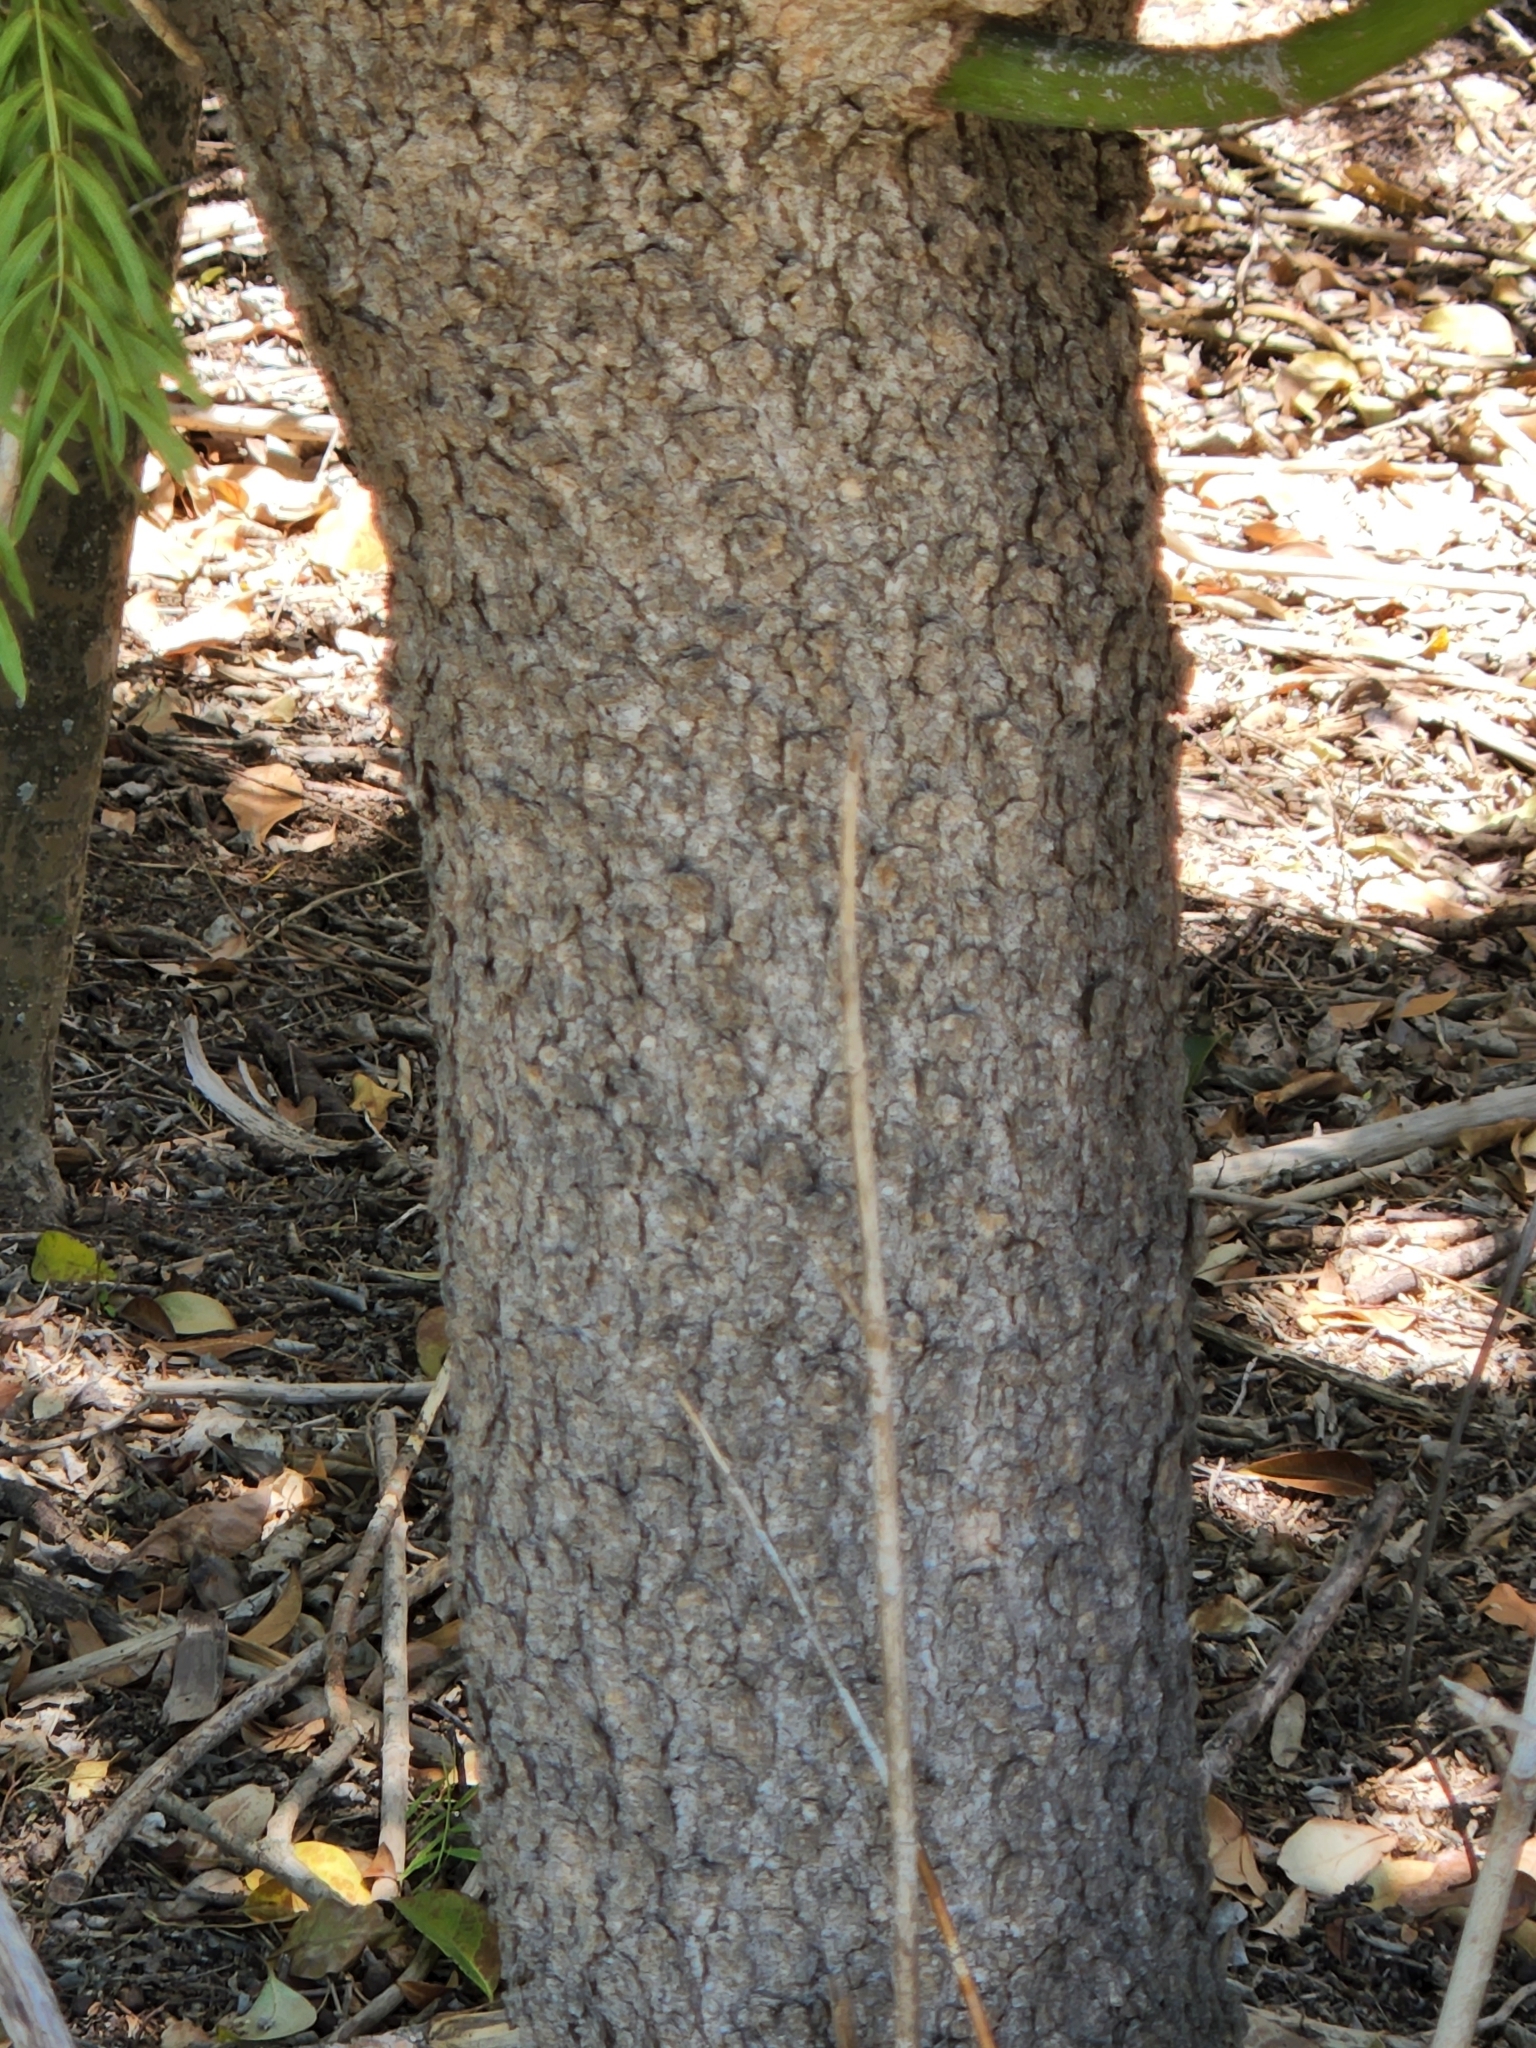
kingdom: Plantae
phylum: Tracheophyta
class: Magnoliopsida
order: Sapindales
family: Sapindaceae
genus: Acer
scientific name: Acer negundo
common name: Ashleaf maple
